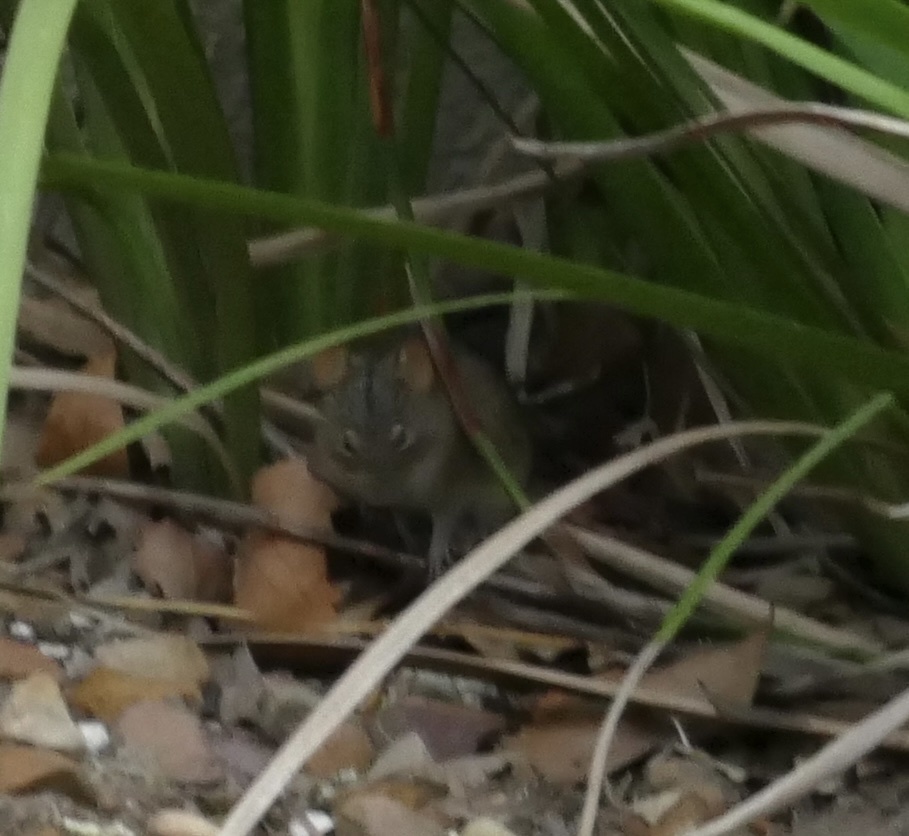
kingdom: Animalia
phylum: Chordata
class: Mammalia
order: Rodentia
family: Muridae
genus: Rhabdomys
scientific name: Rhabdomys pumilio
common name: Xeric four-striped grass rat
